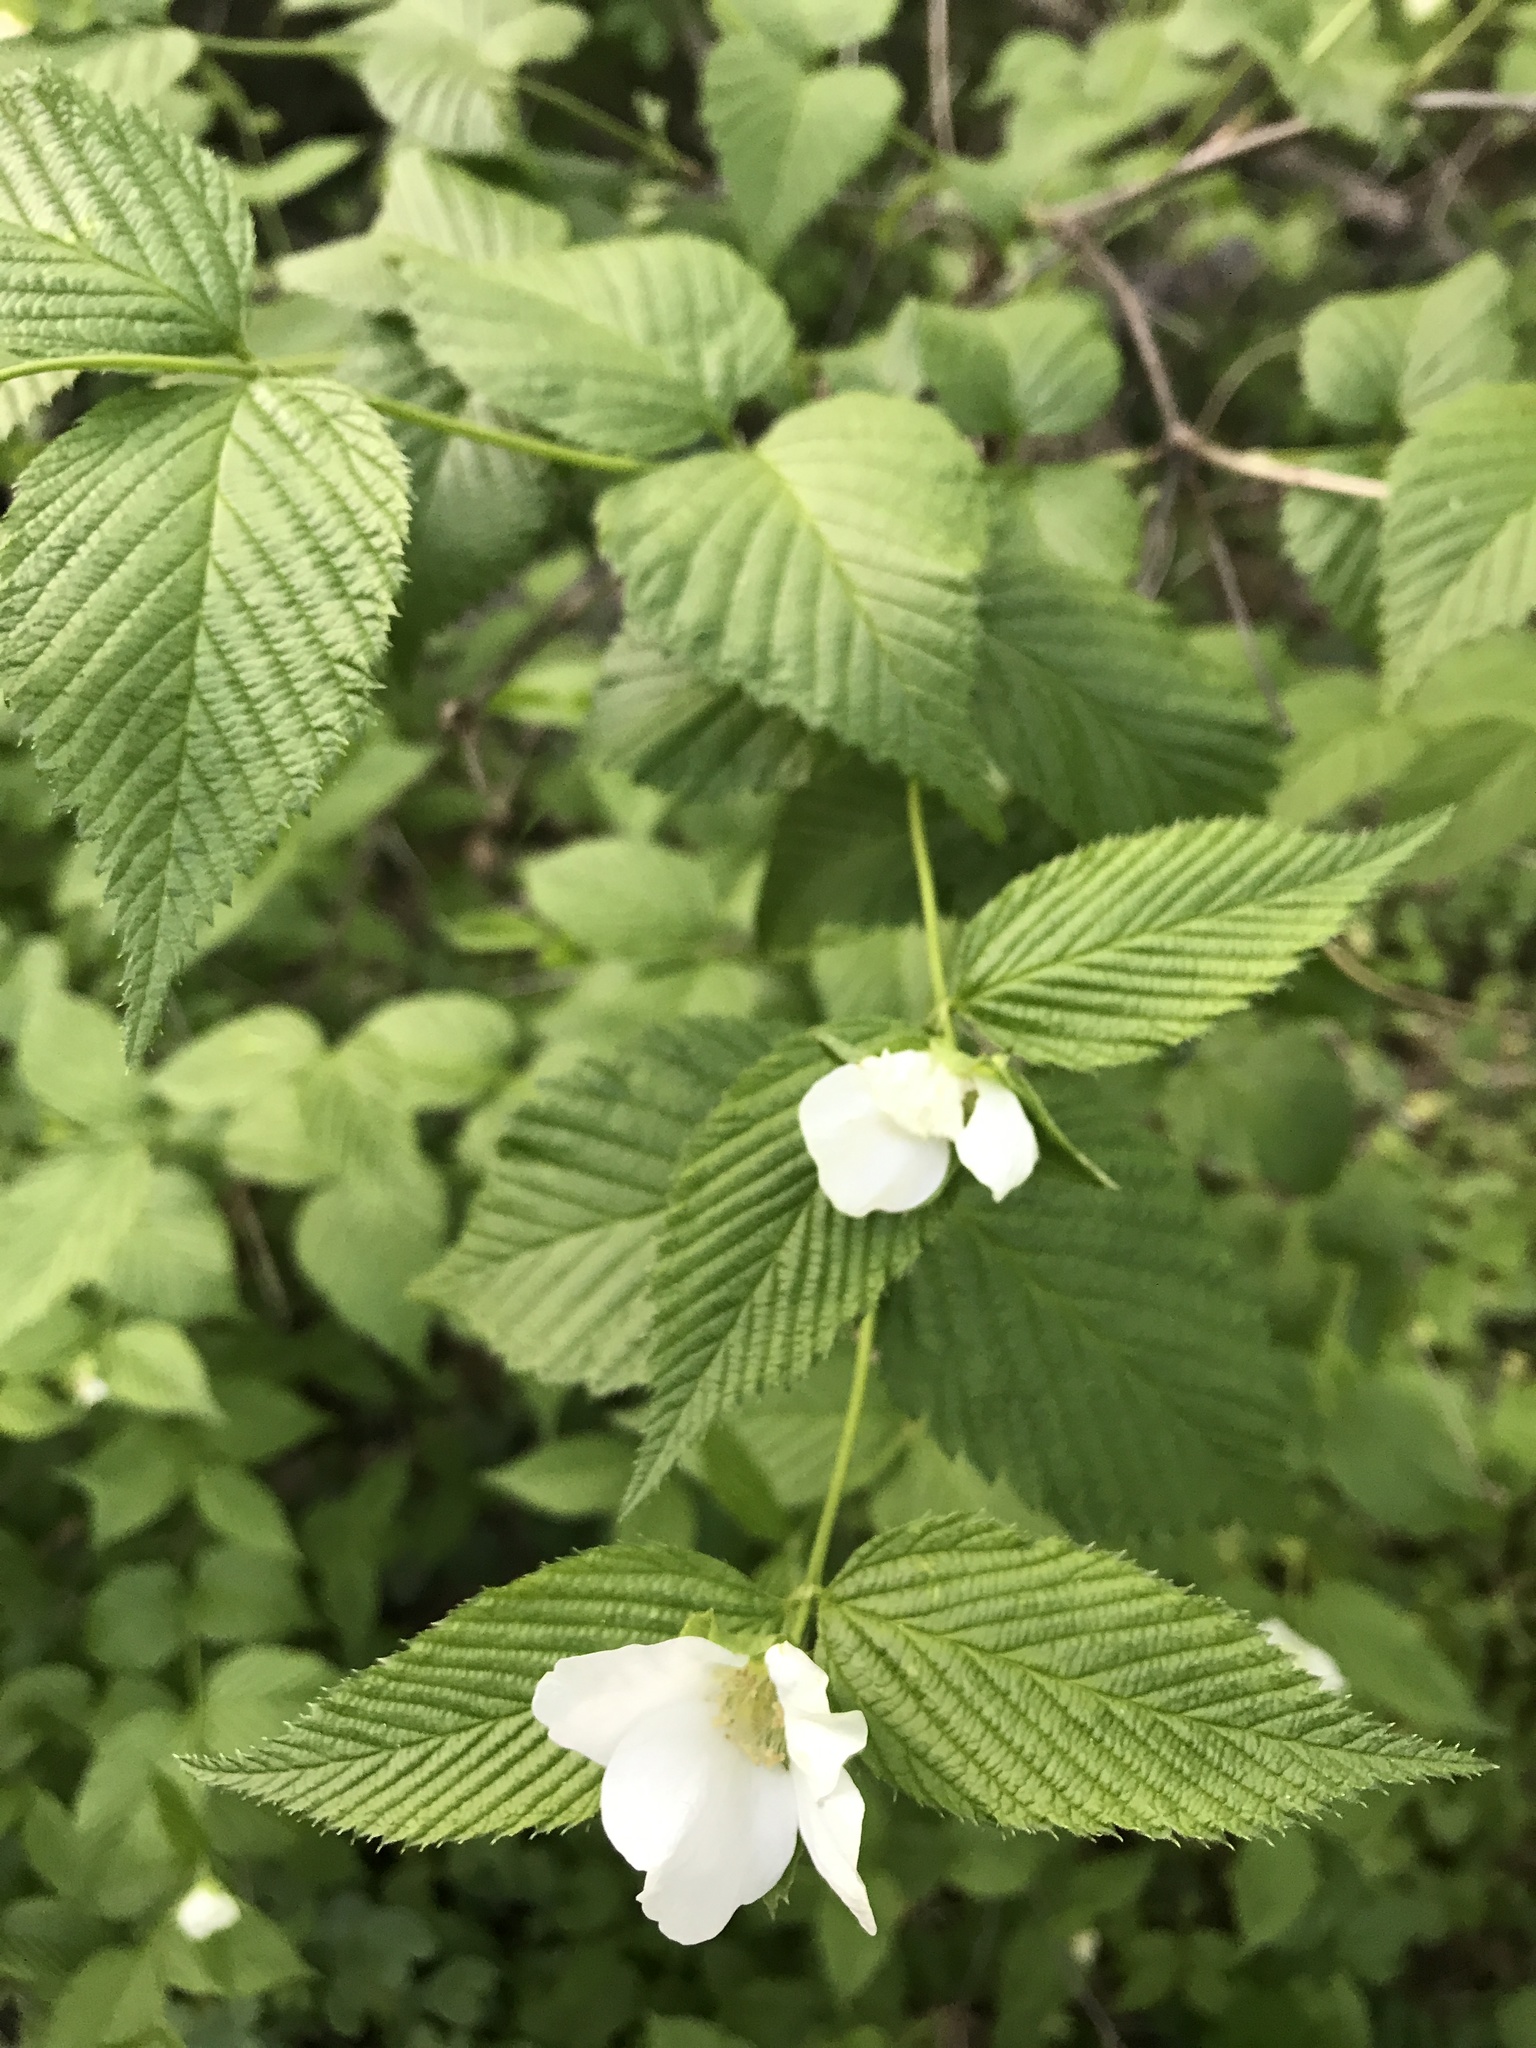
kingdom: Plantae
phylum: Tracheophyta
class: Magnoliopsida
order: Rosales
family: Rosaceae
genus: Rhodotypos
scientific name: Rhodotypos scandens
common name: Jetbead
